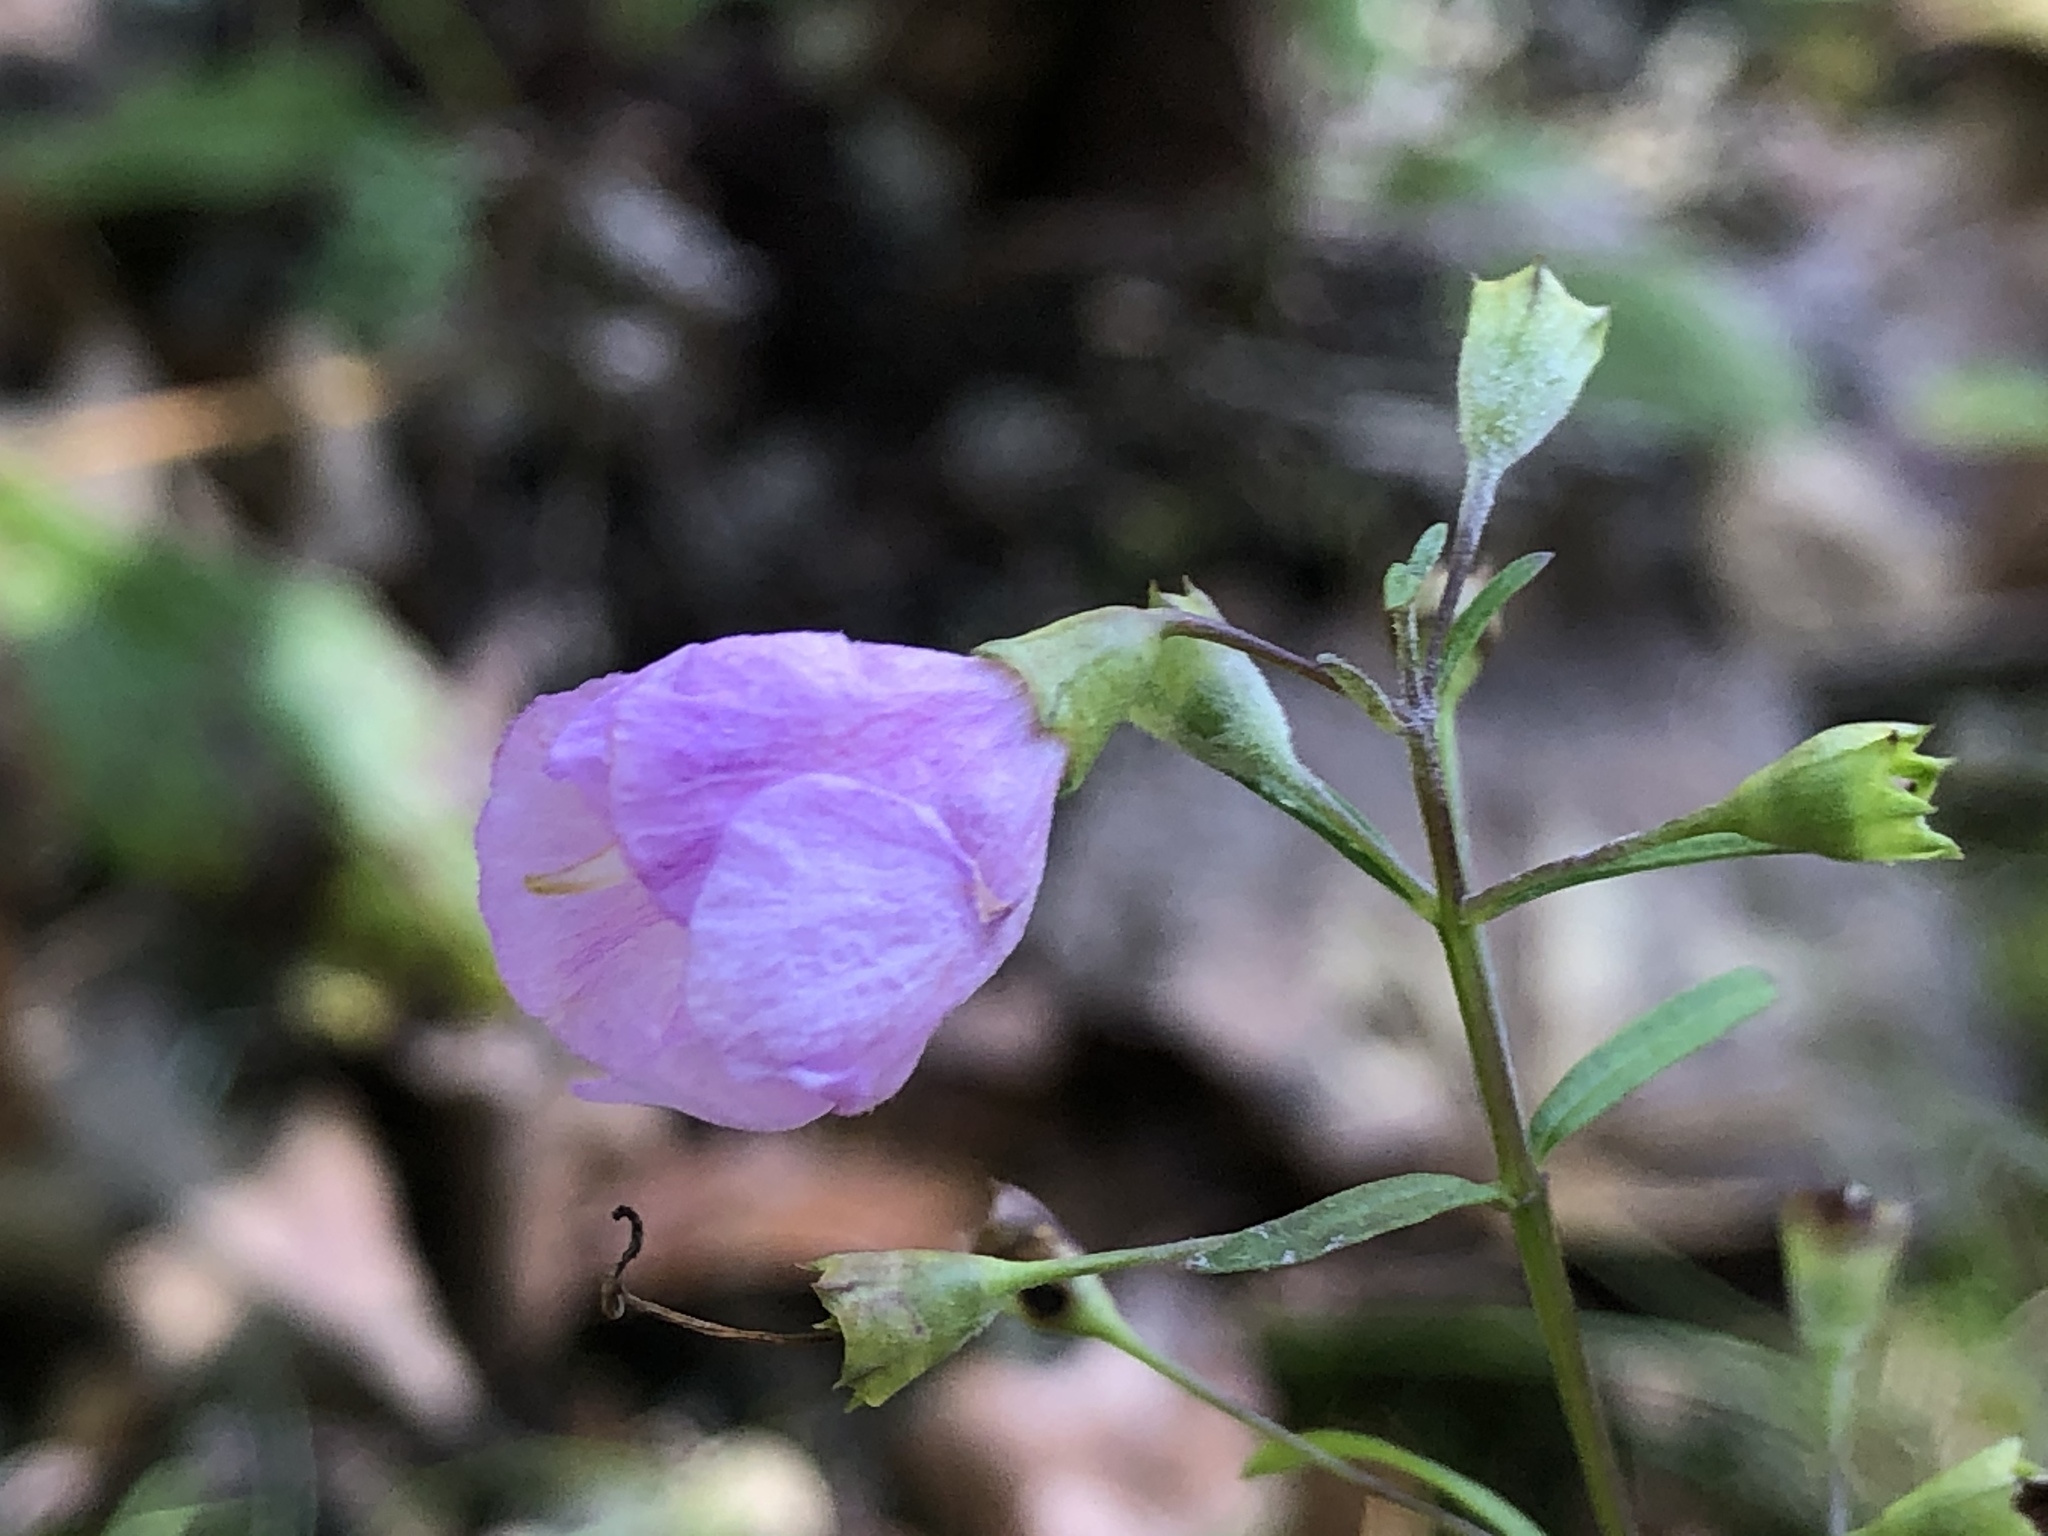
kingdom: Plantae
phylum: Tracheophyta
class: Magnoliopsida
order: Lamiales
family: Orobanchaceae
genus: Agalinis
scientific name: Agalinis tenuifolia
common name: Slender agalinis
